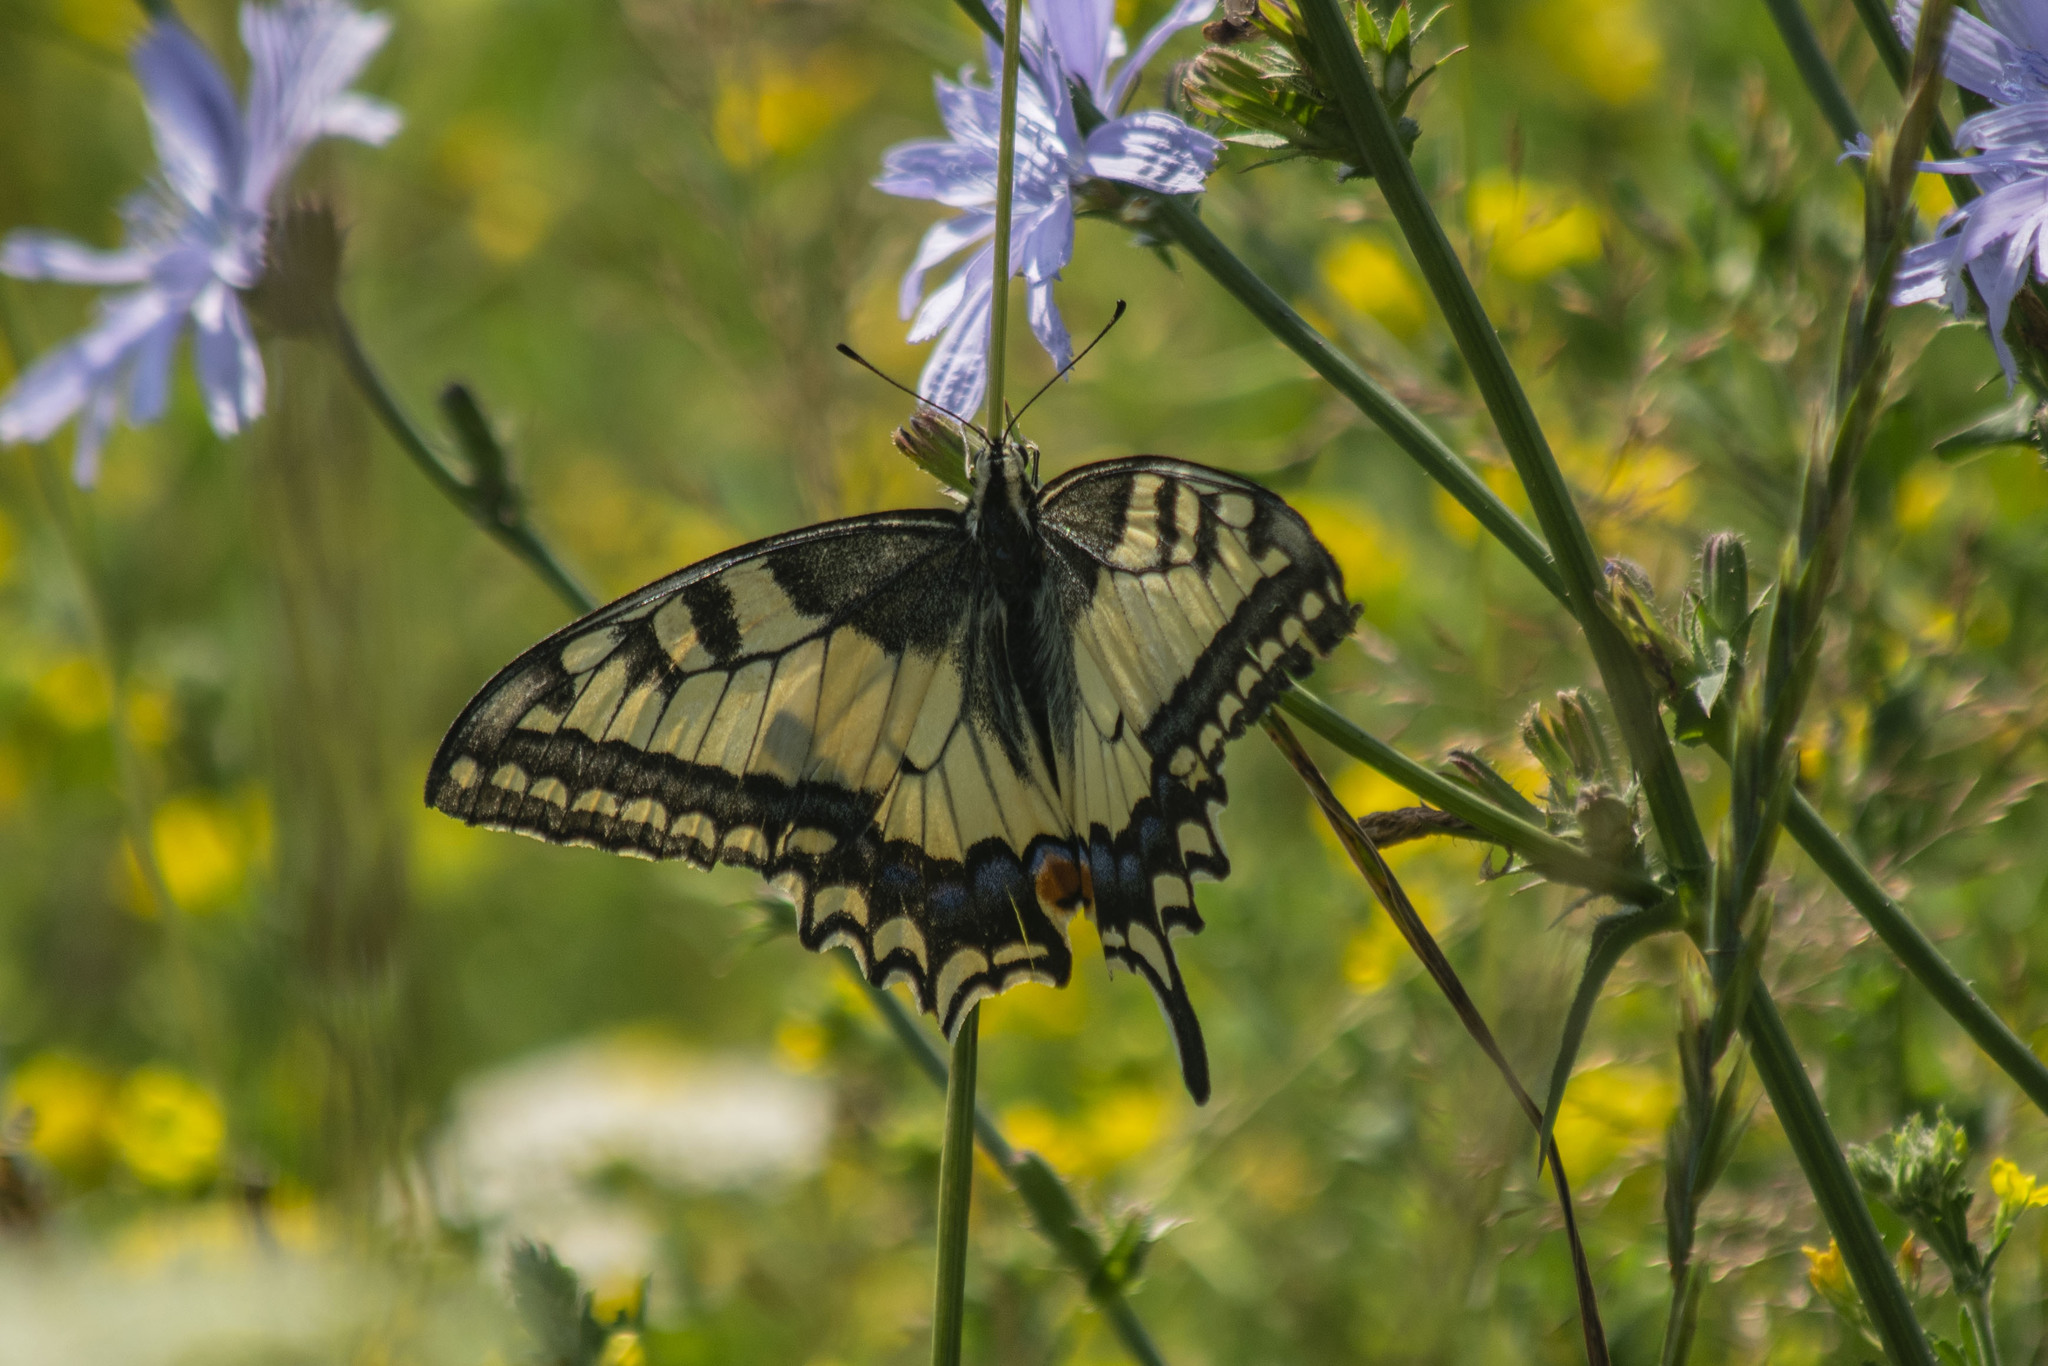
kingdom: Animalia
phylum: Arthropoda
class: Insecta
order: Lepidoptera
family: Papilionidae
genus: Papilio
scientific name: Papilio machaon
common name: Swallowtail
